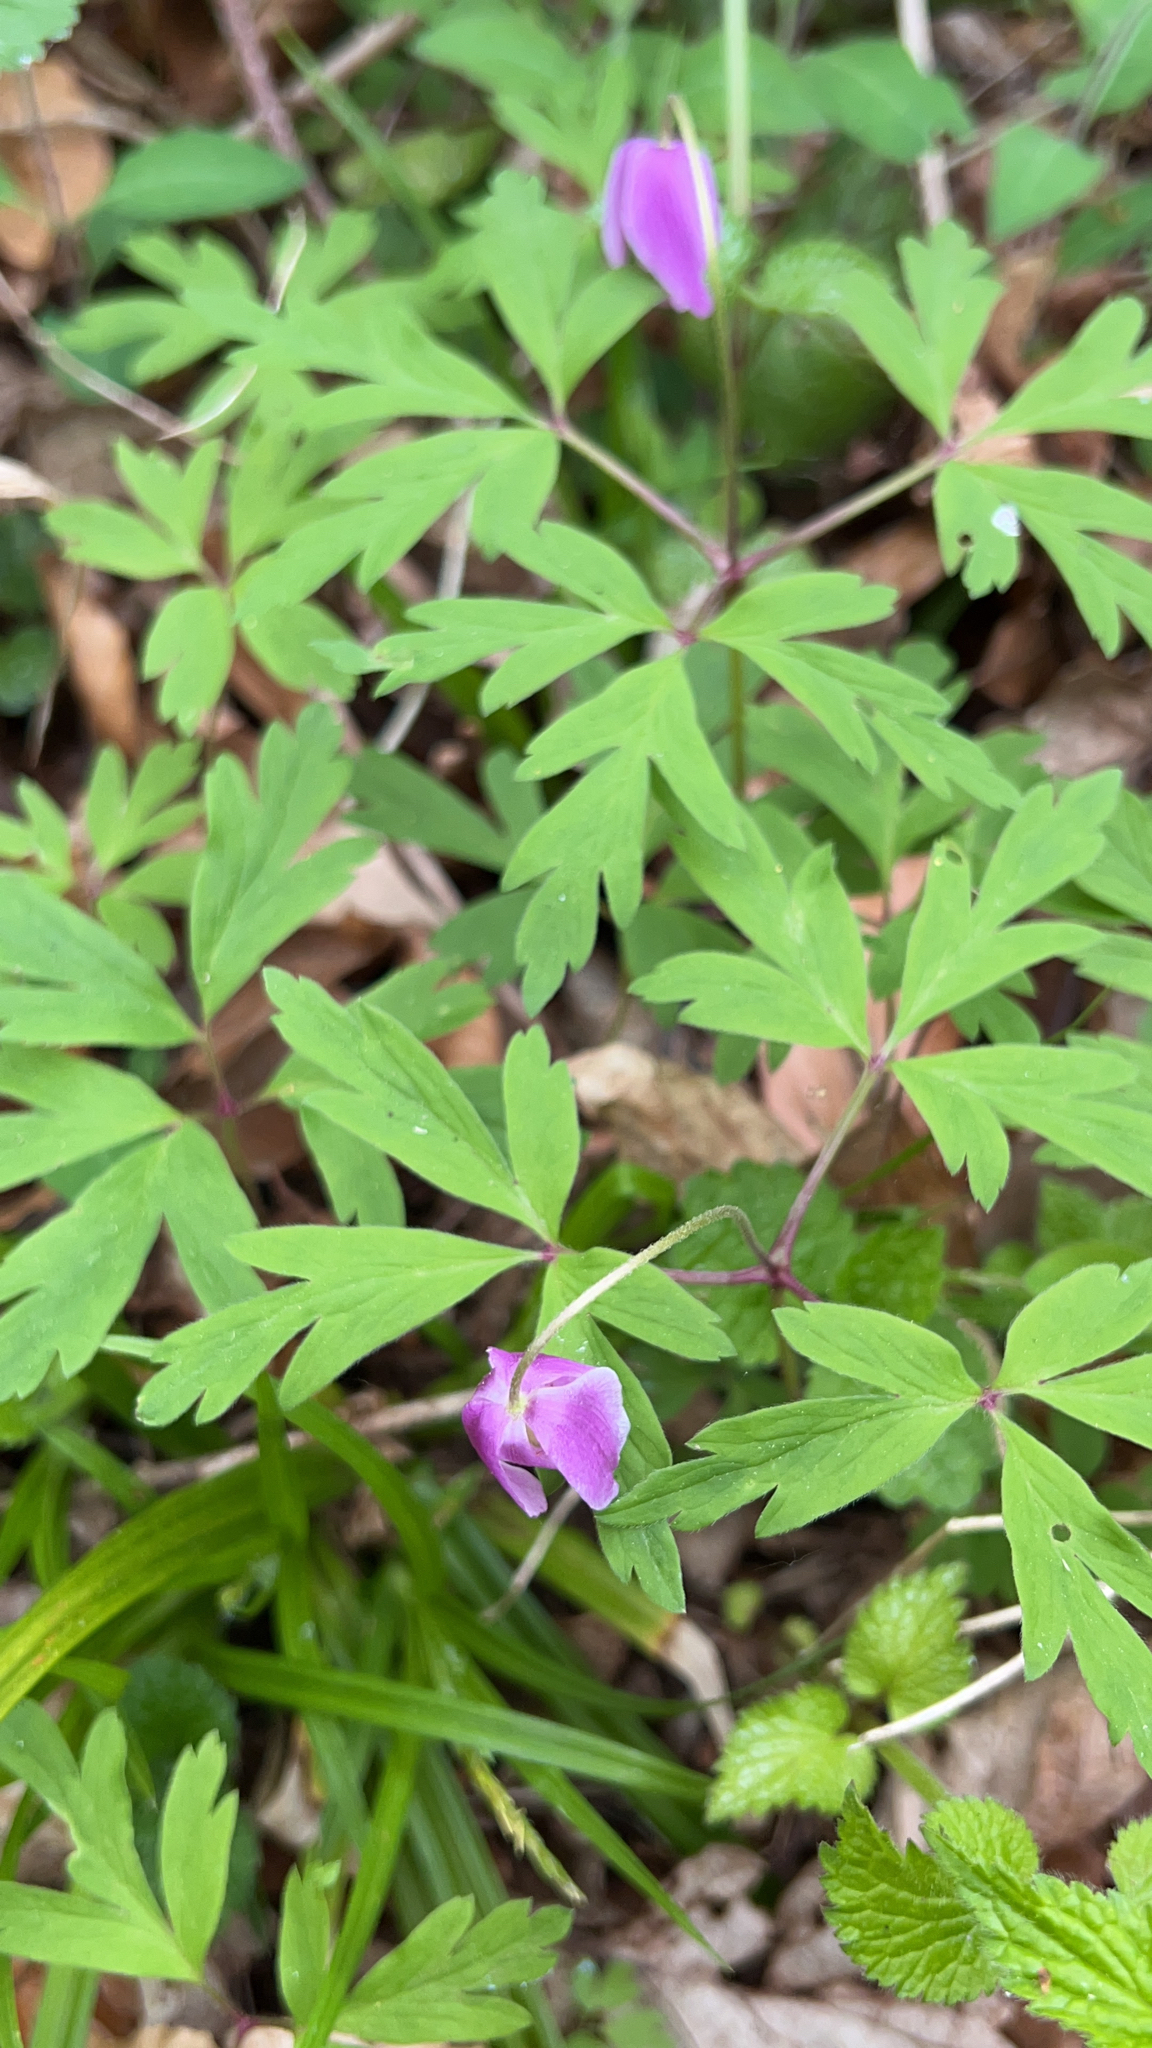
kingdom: Plantae
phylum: Tracheophyta
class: Magnoliopsida
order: Ranunculales
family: Ranunculaceae
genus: Anemone
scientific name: Anemone nemorosa
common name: Wood anemone
